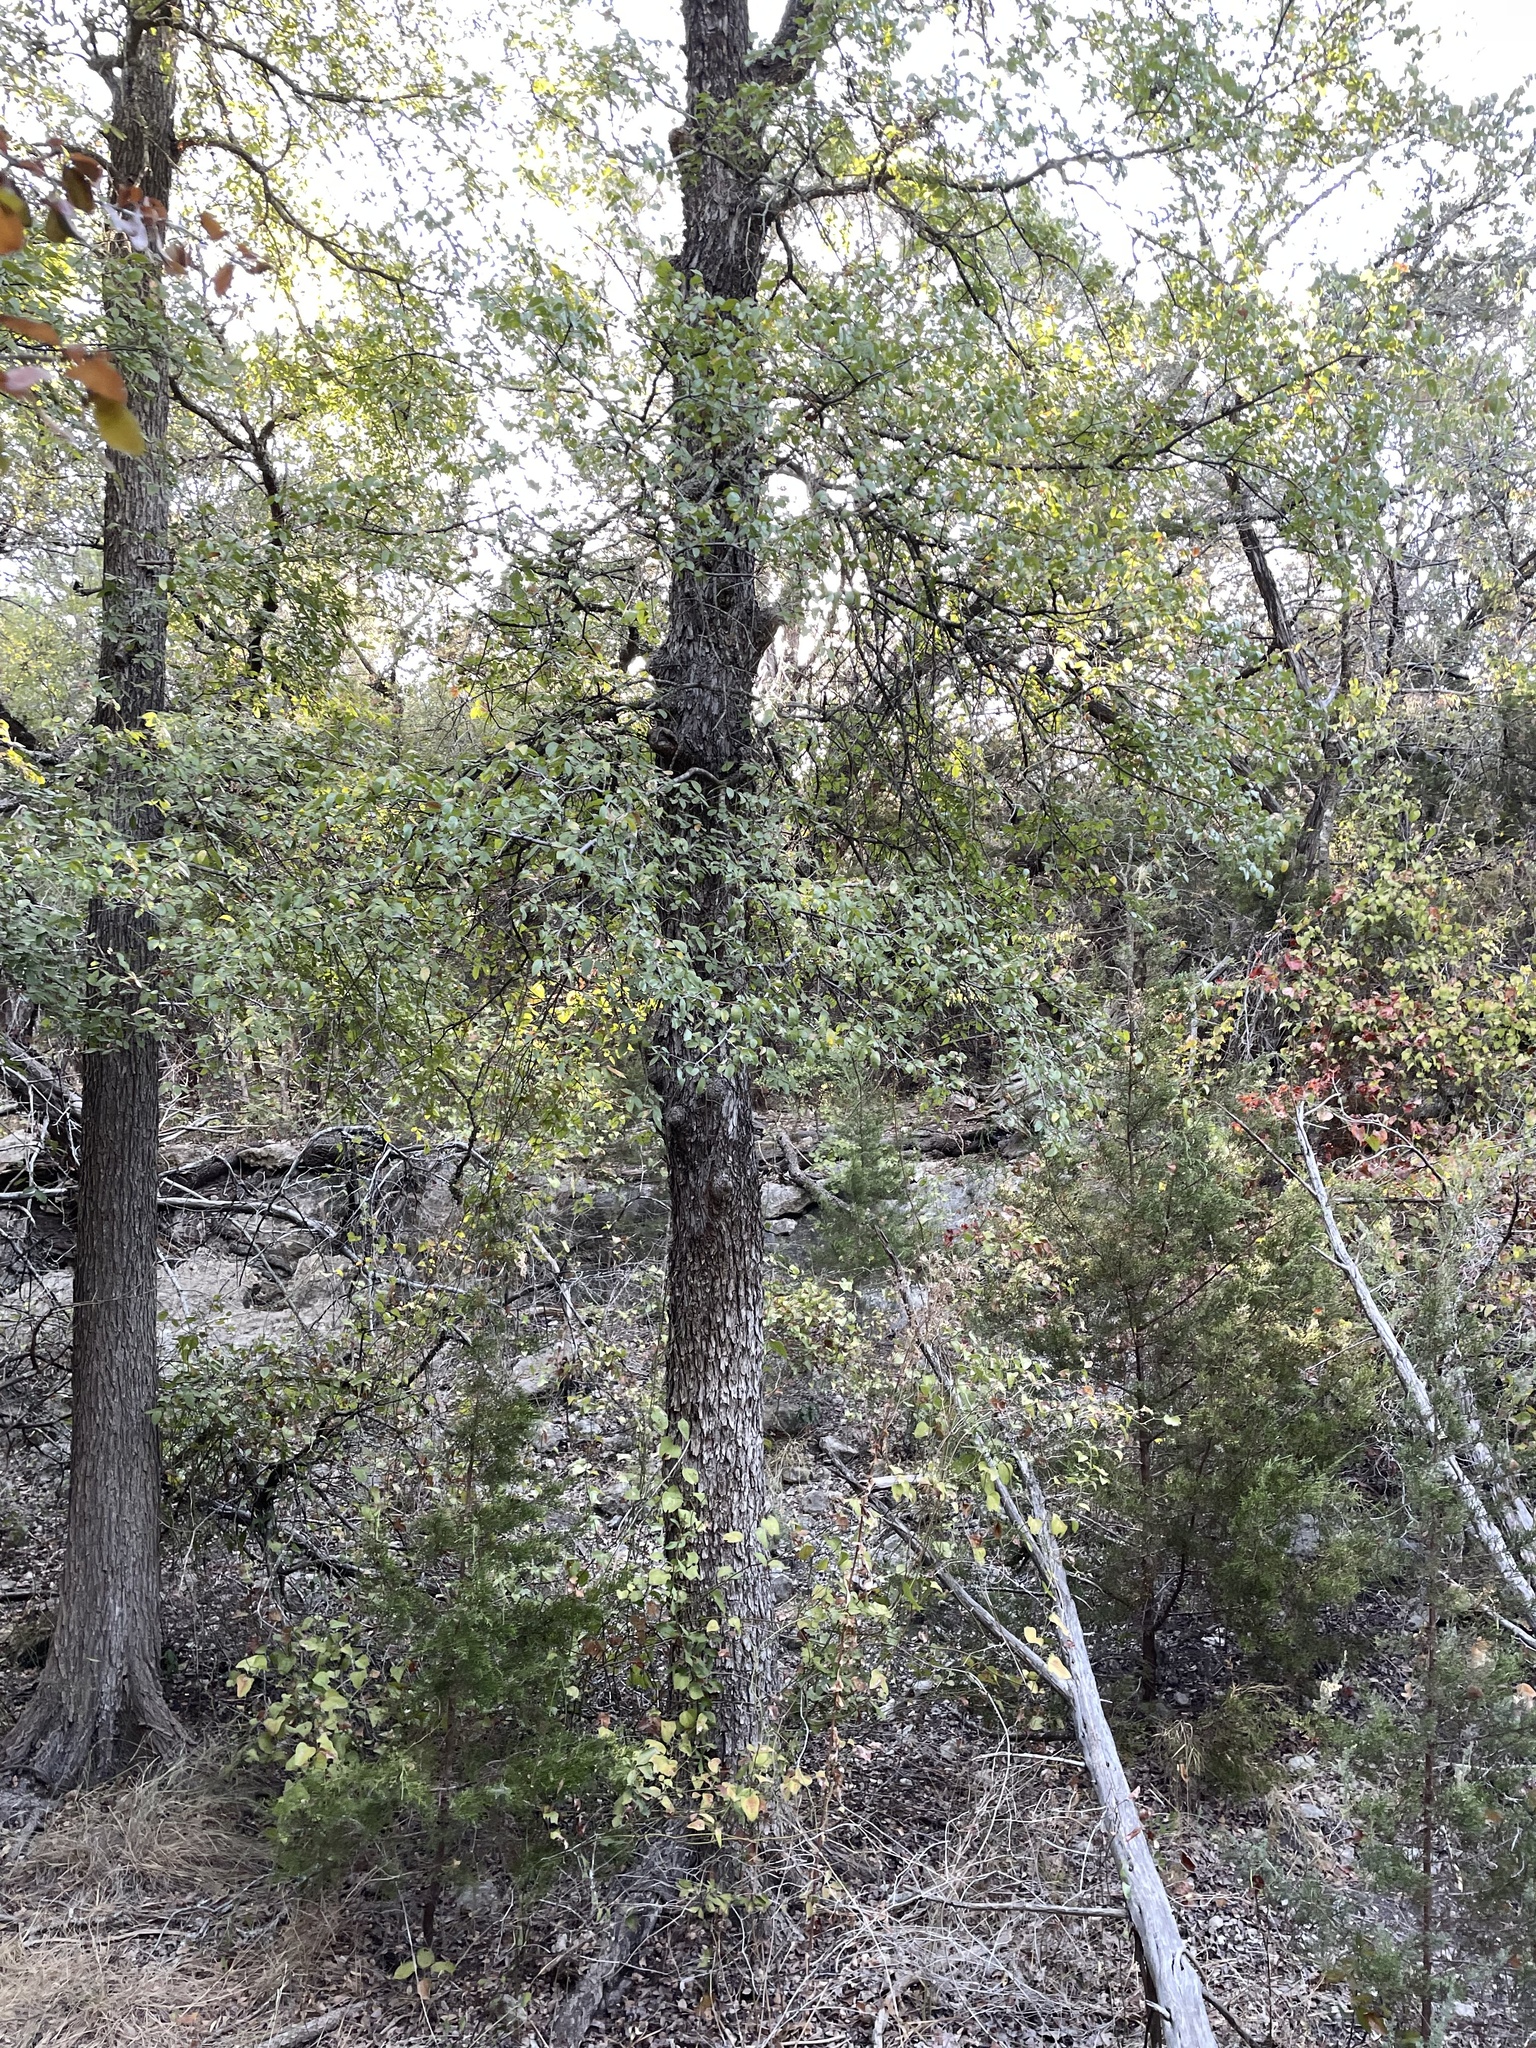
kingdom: Plantae
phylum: Tracheophyta
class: Magnoliopsida
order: Rosales
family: Ulmaceae
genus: Ulmus
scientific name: Ulmus crassifolia
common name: Basket elm
